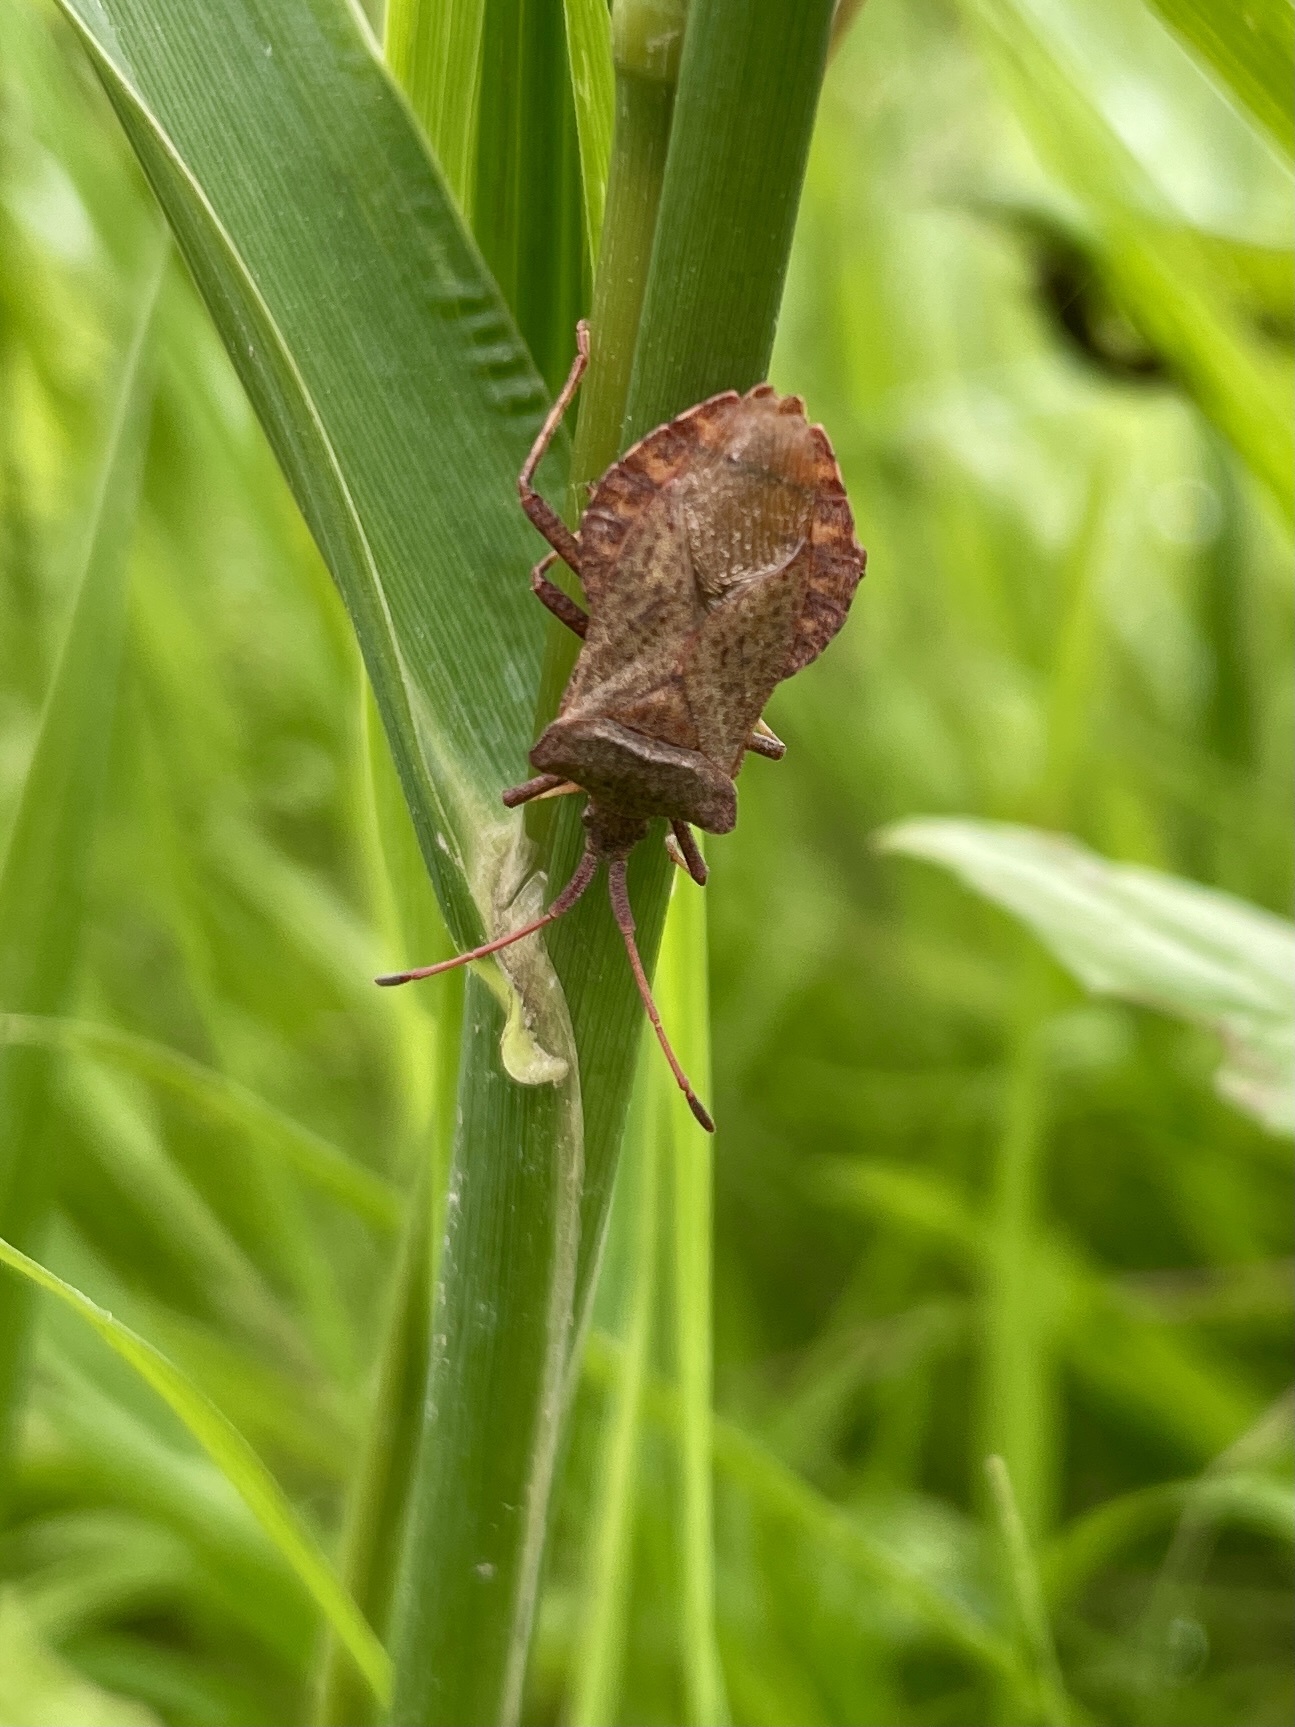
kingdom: Animalia
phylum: Arthropoda
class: Insecta
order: Hemiptera
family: Coreidae
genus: Coreus
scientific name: Coreus marginatus
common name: Dock bug
